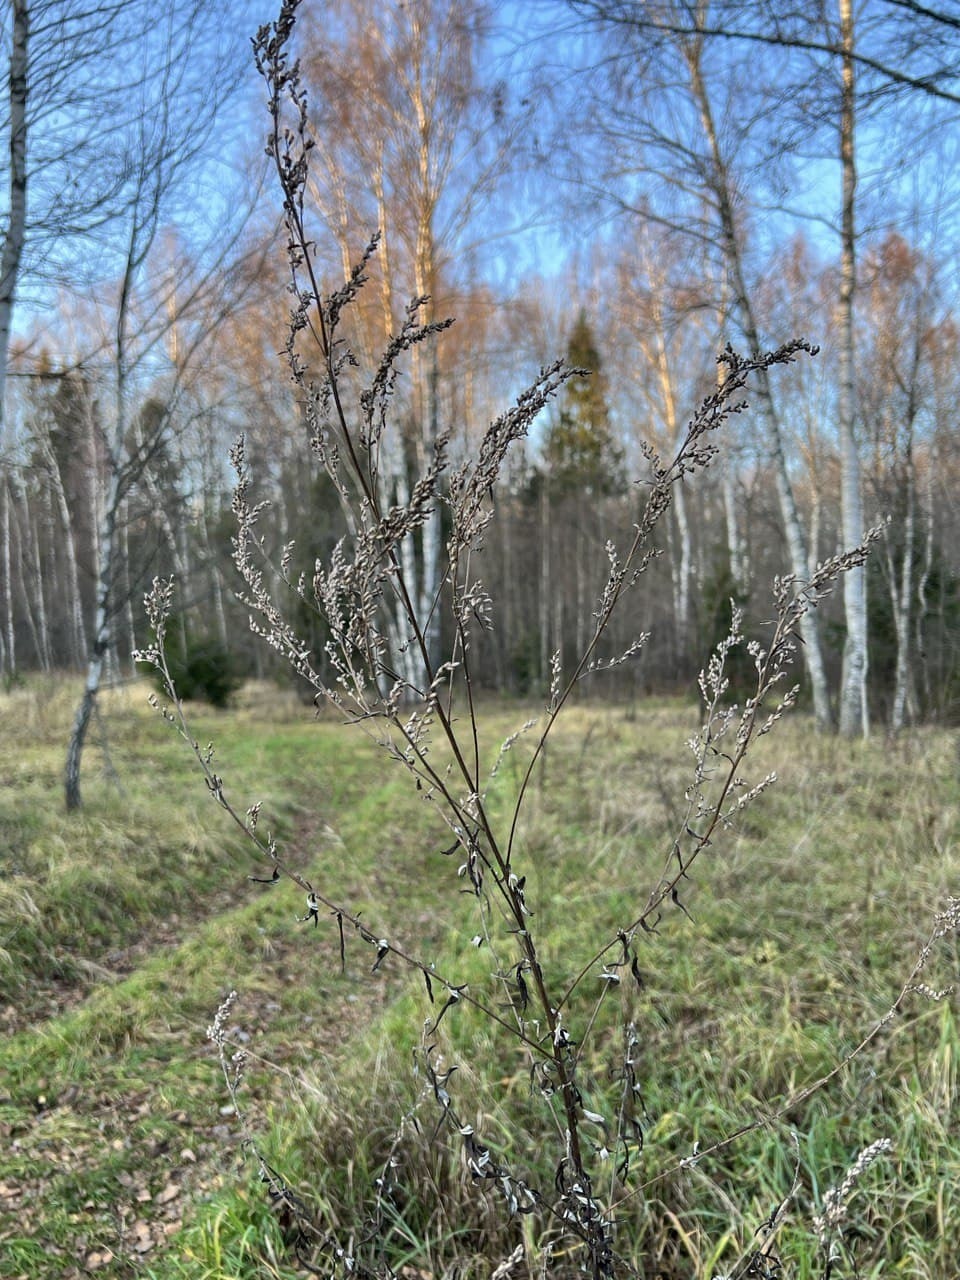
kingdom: Plantae
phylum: Tracheophyta
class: Magnoliopsida
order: Asterales
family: Asteraceae
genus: Artemisia
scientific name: Artemisia vulgaris
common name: Mugwort
